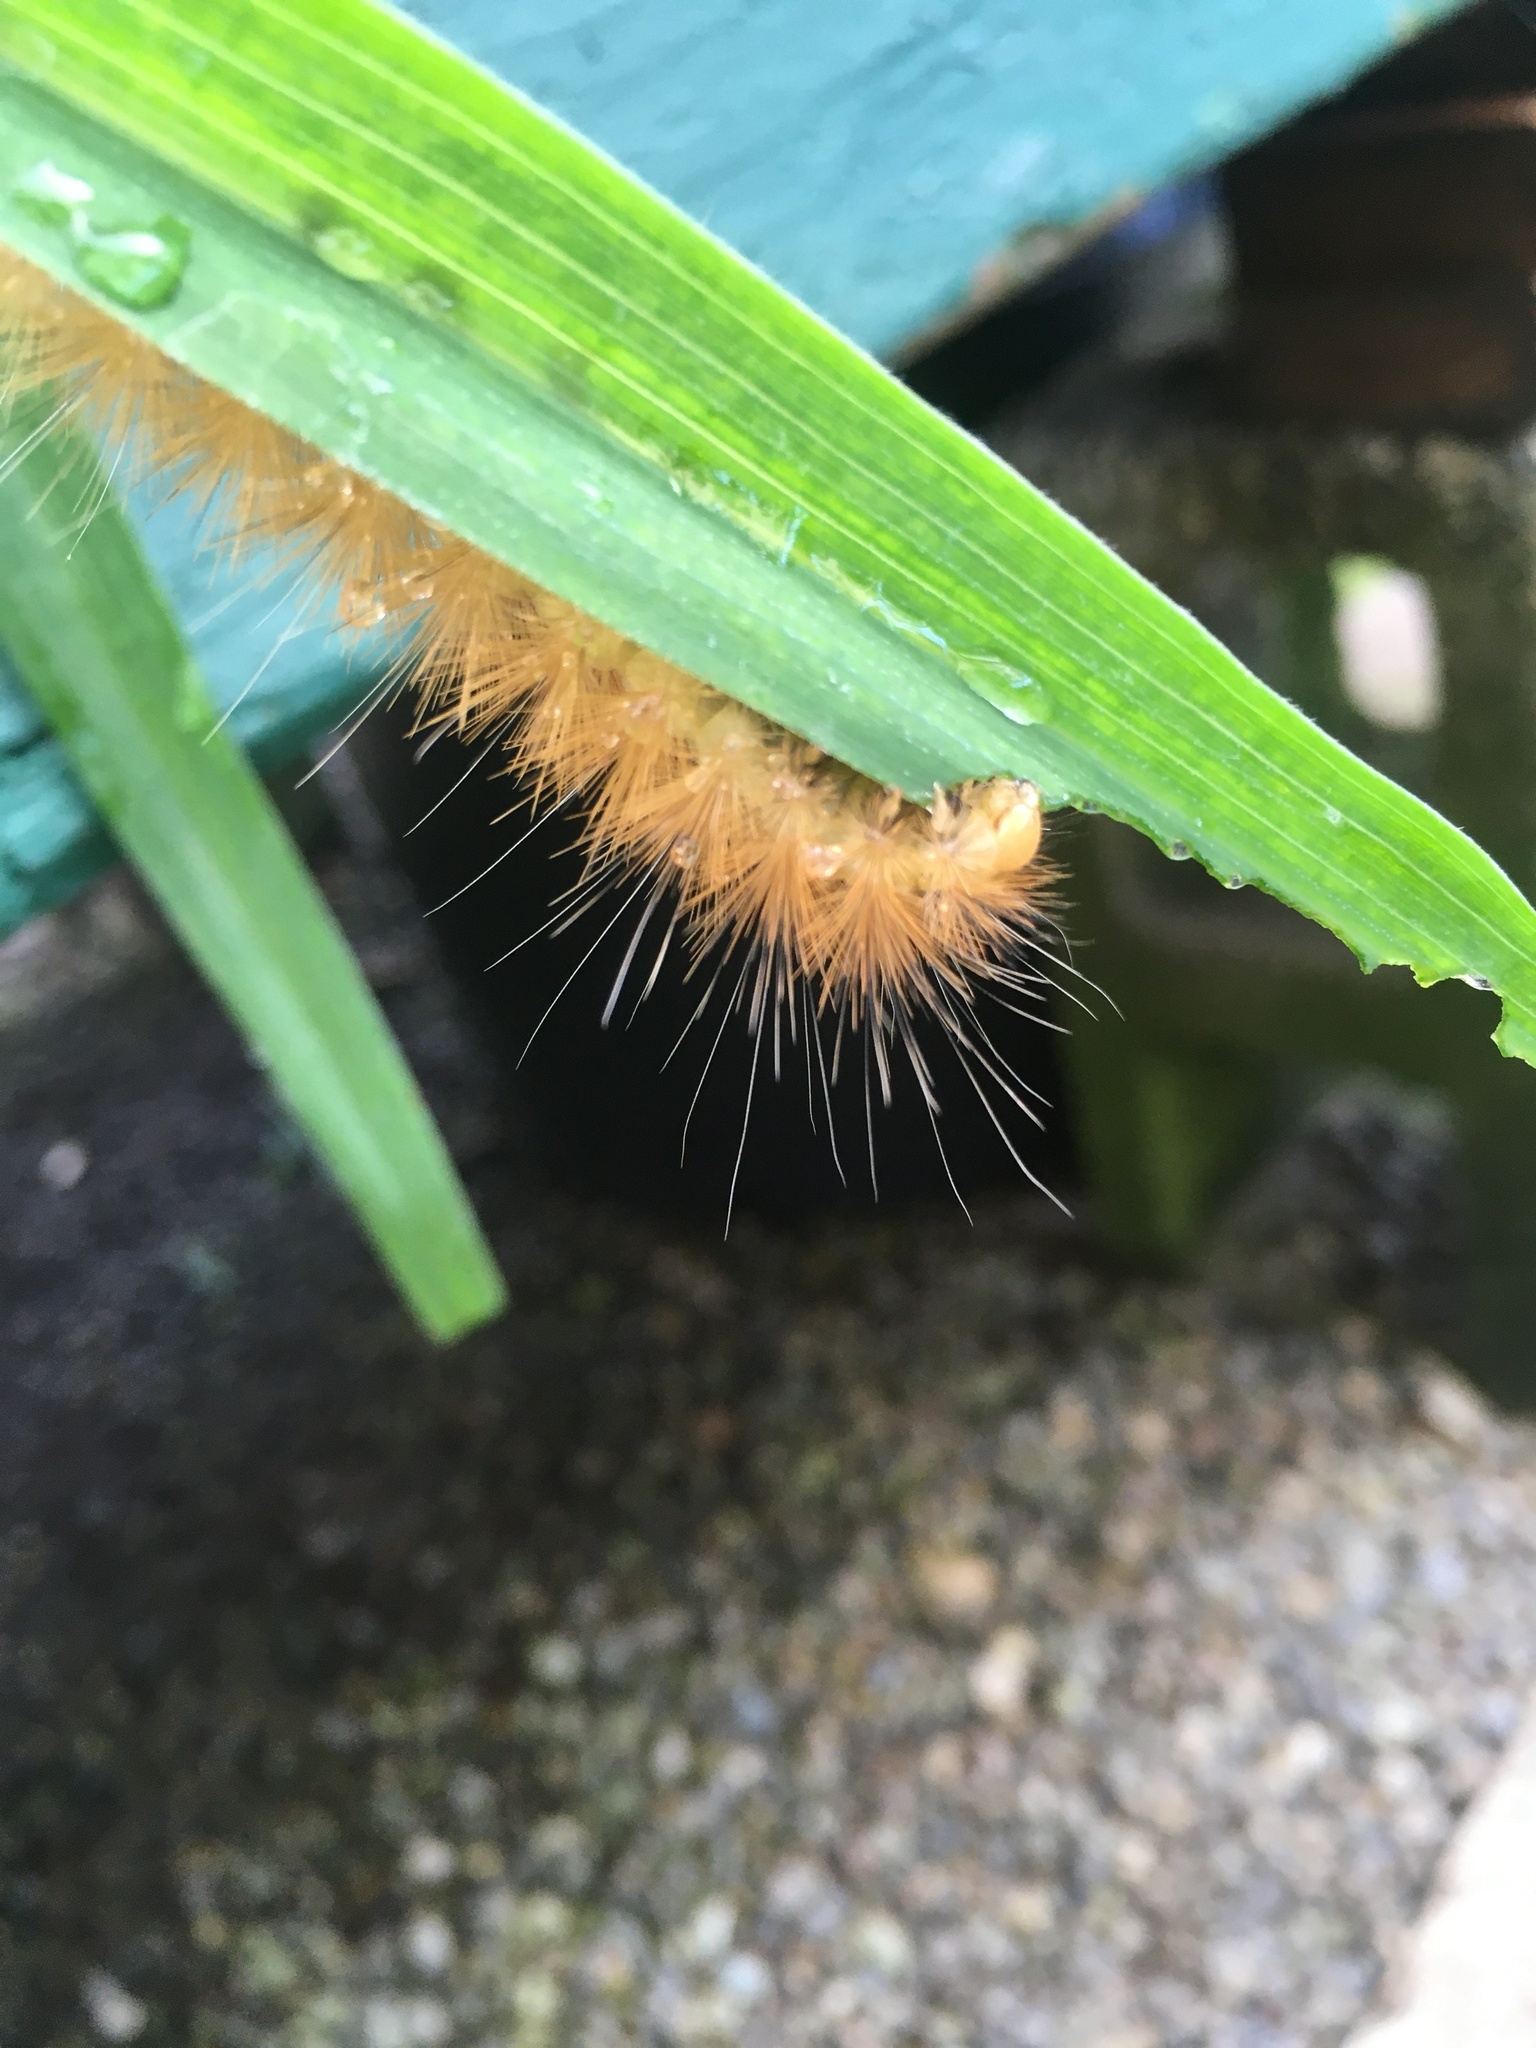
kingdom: Animalia
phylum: Arthropoda
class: Insecta
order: Lepidoptera
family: Erebidae
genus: Spilosoma
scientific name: Spilosoma virginica
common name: Virginia tiger moth
